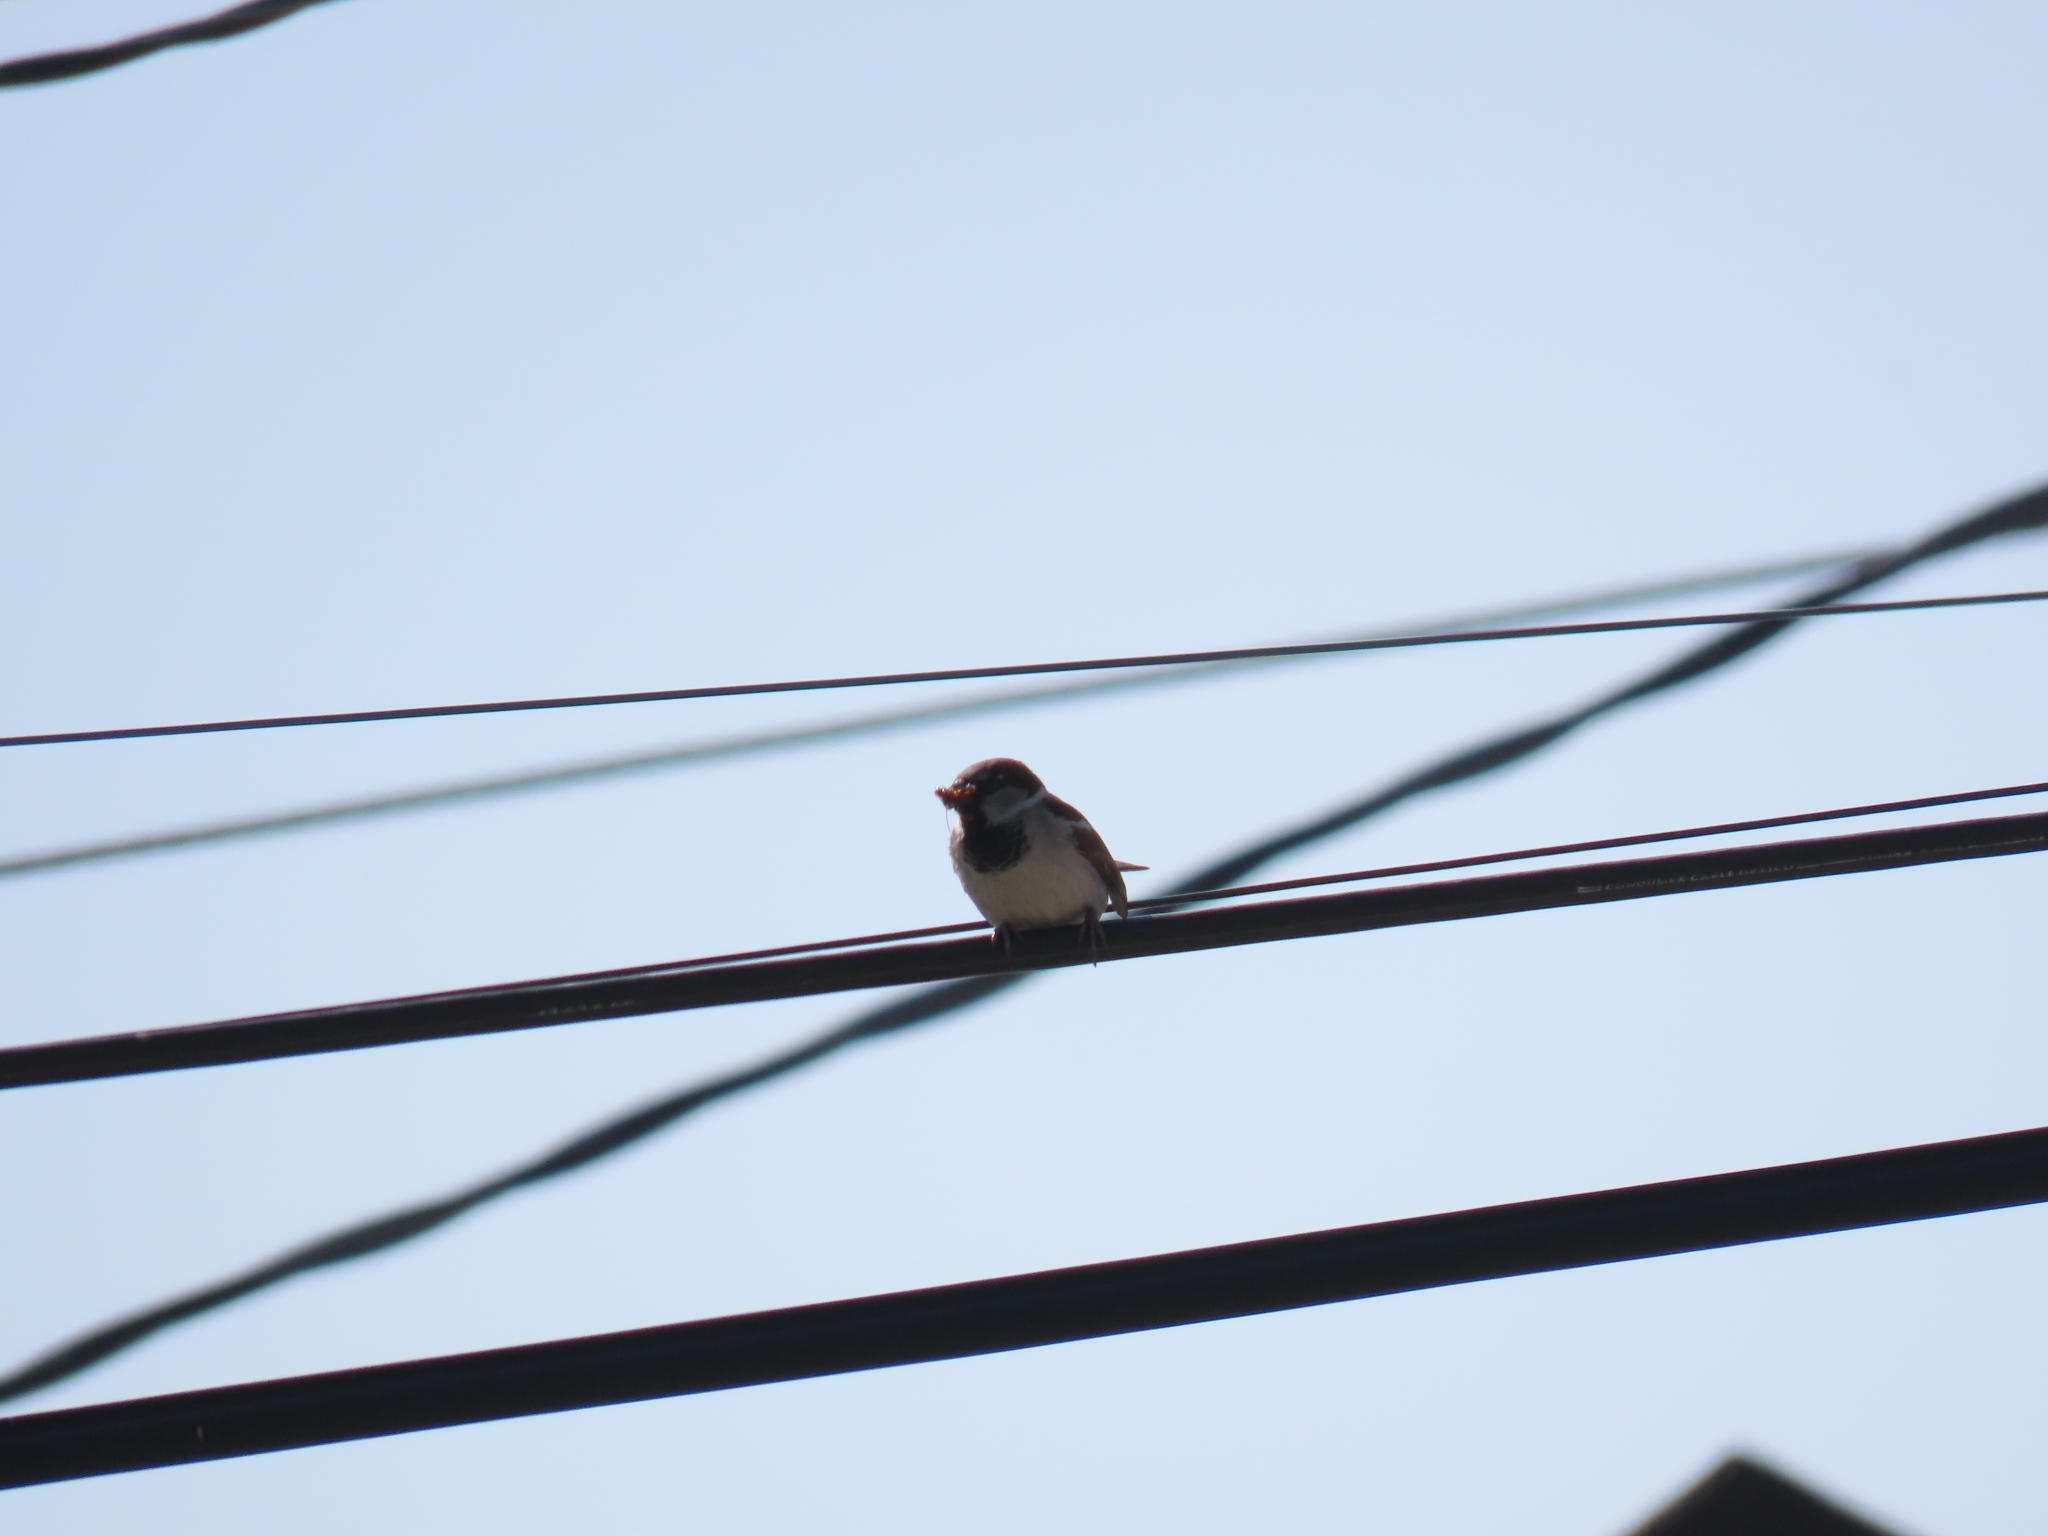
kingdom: Animalia
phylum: Chordata
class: Aves
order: Passeriformes
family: Passeridae
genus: Passer
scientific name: Passer domesticus
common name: House sparrow
